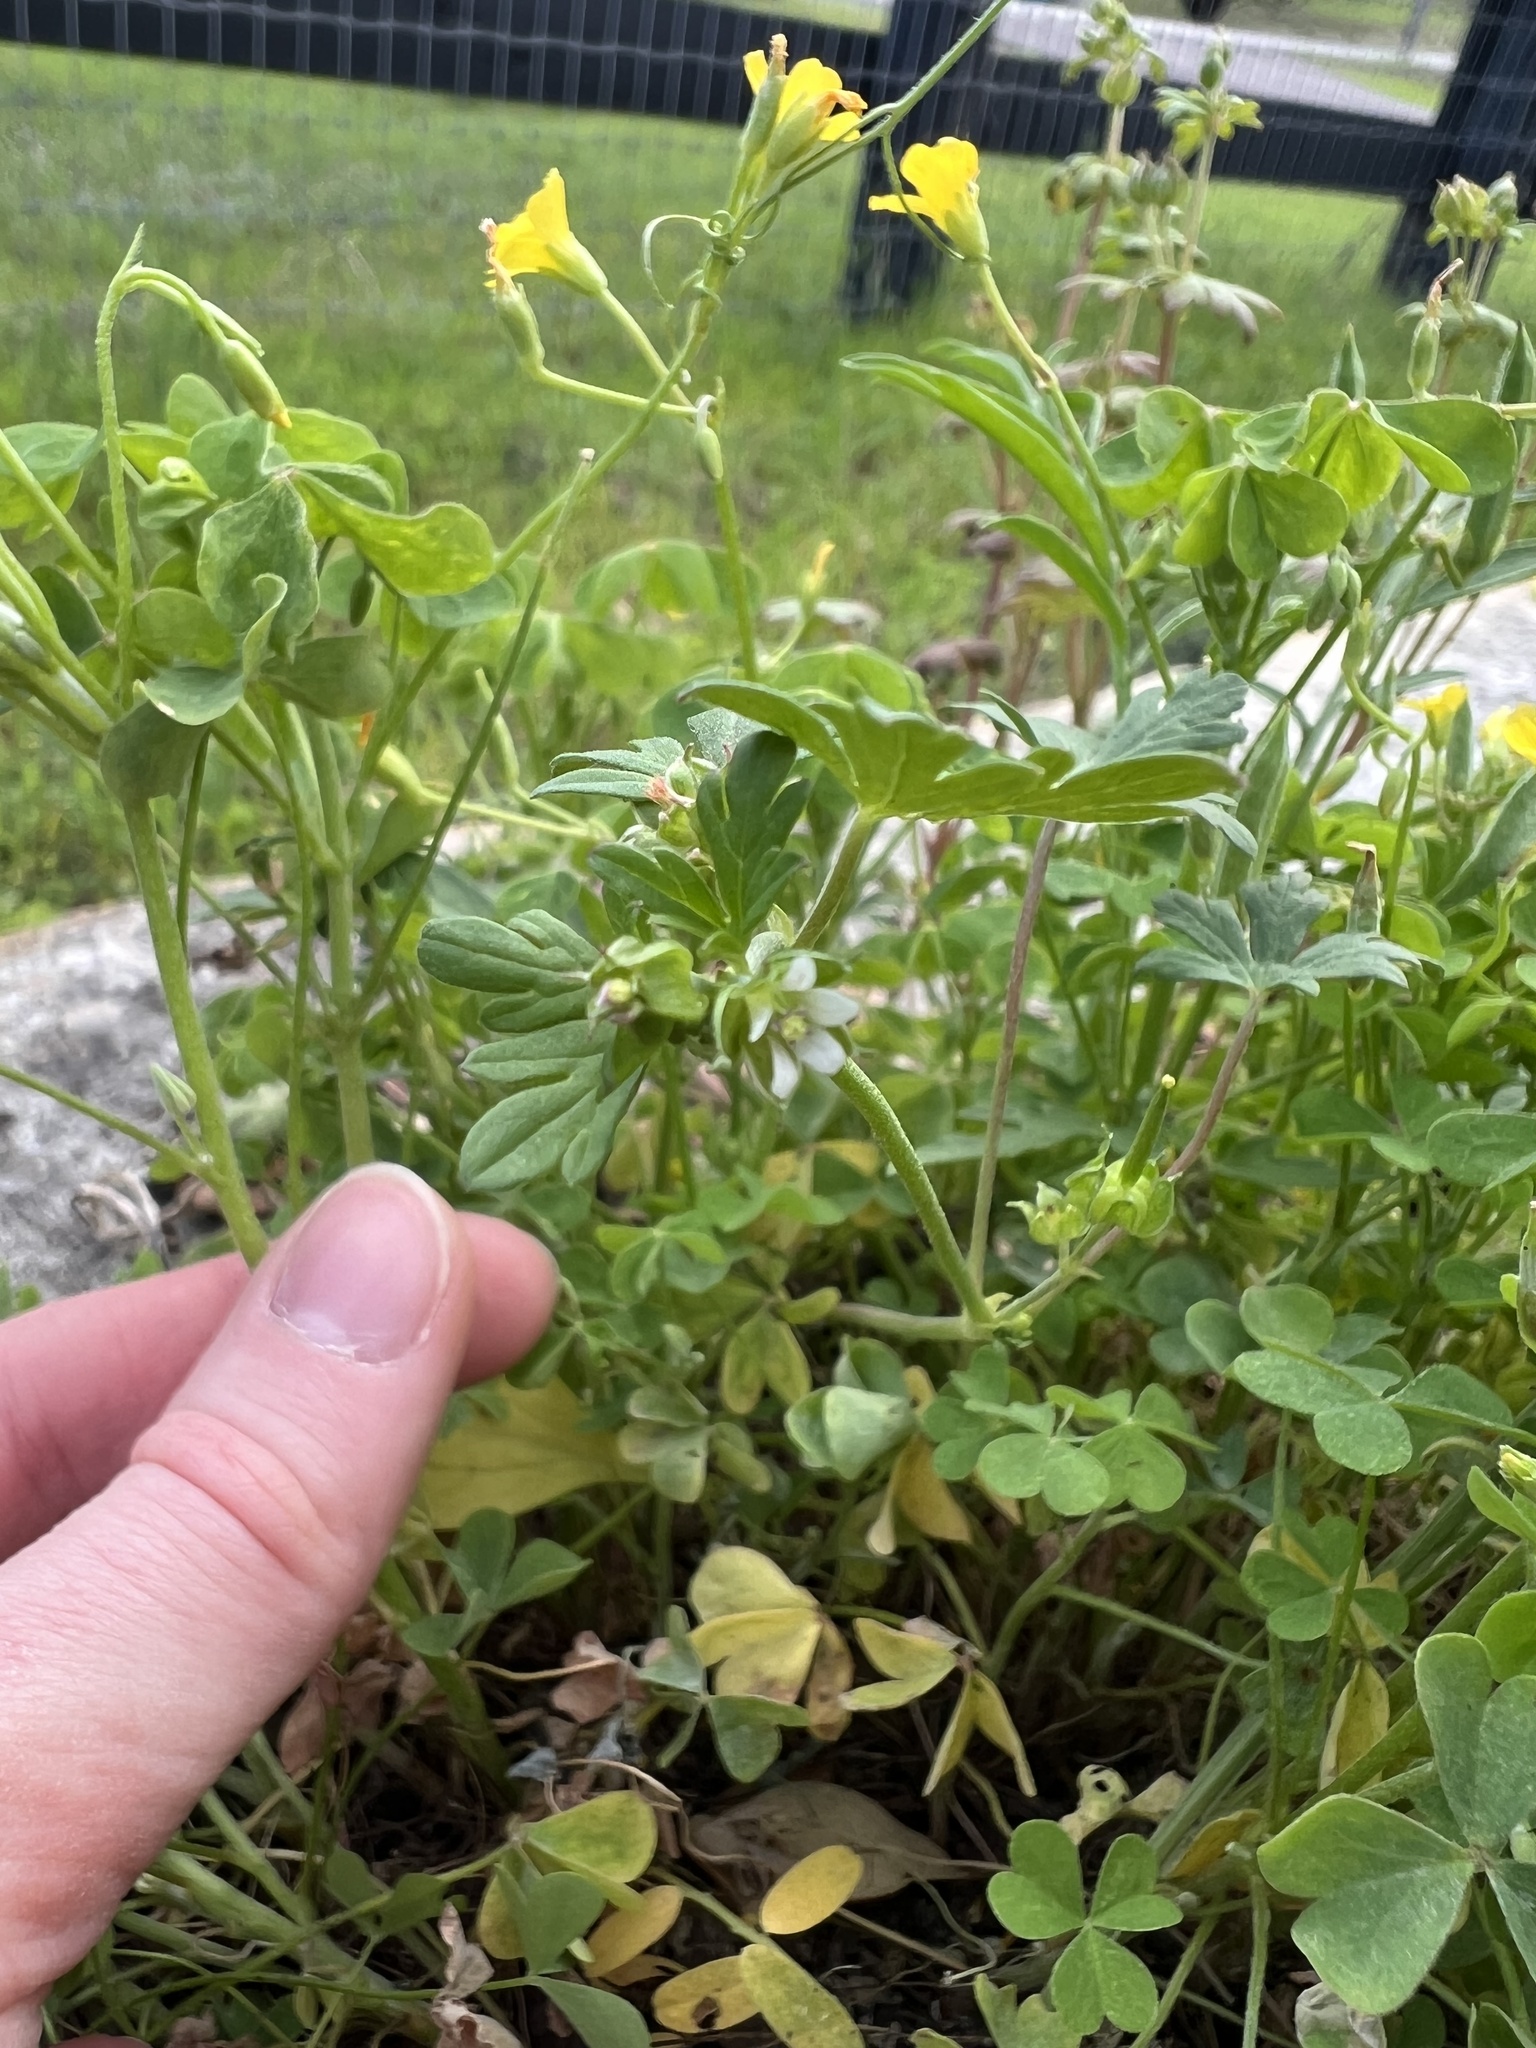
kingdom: Plantae
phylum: Tracheophyta
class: Magnoliopsida
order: Geraniales
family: Geraniaceae
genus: Geranium
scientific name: Geranium texanum
